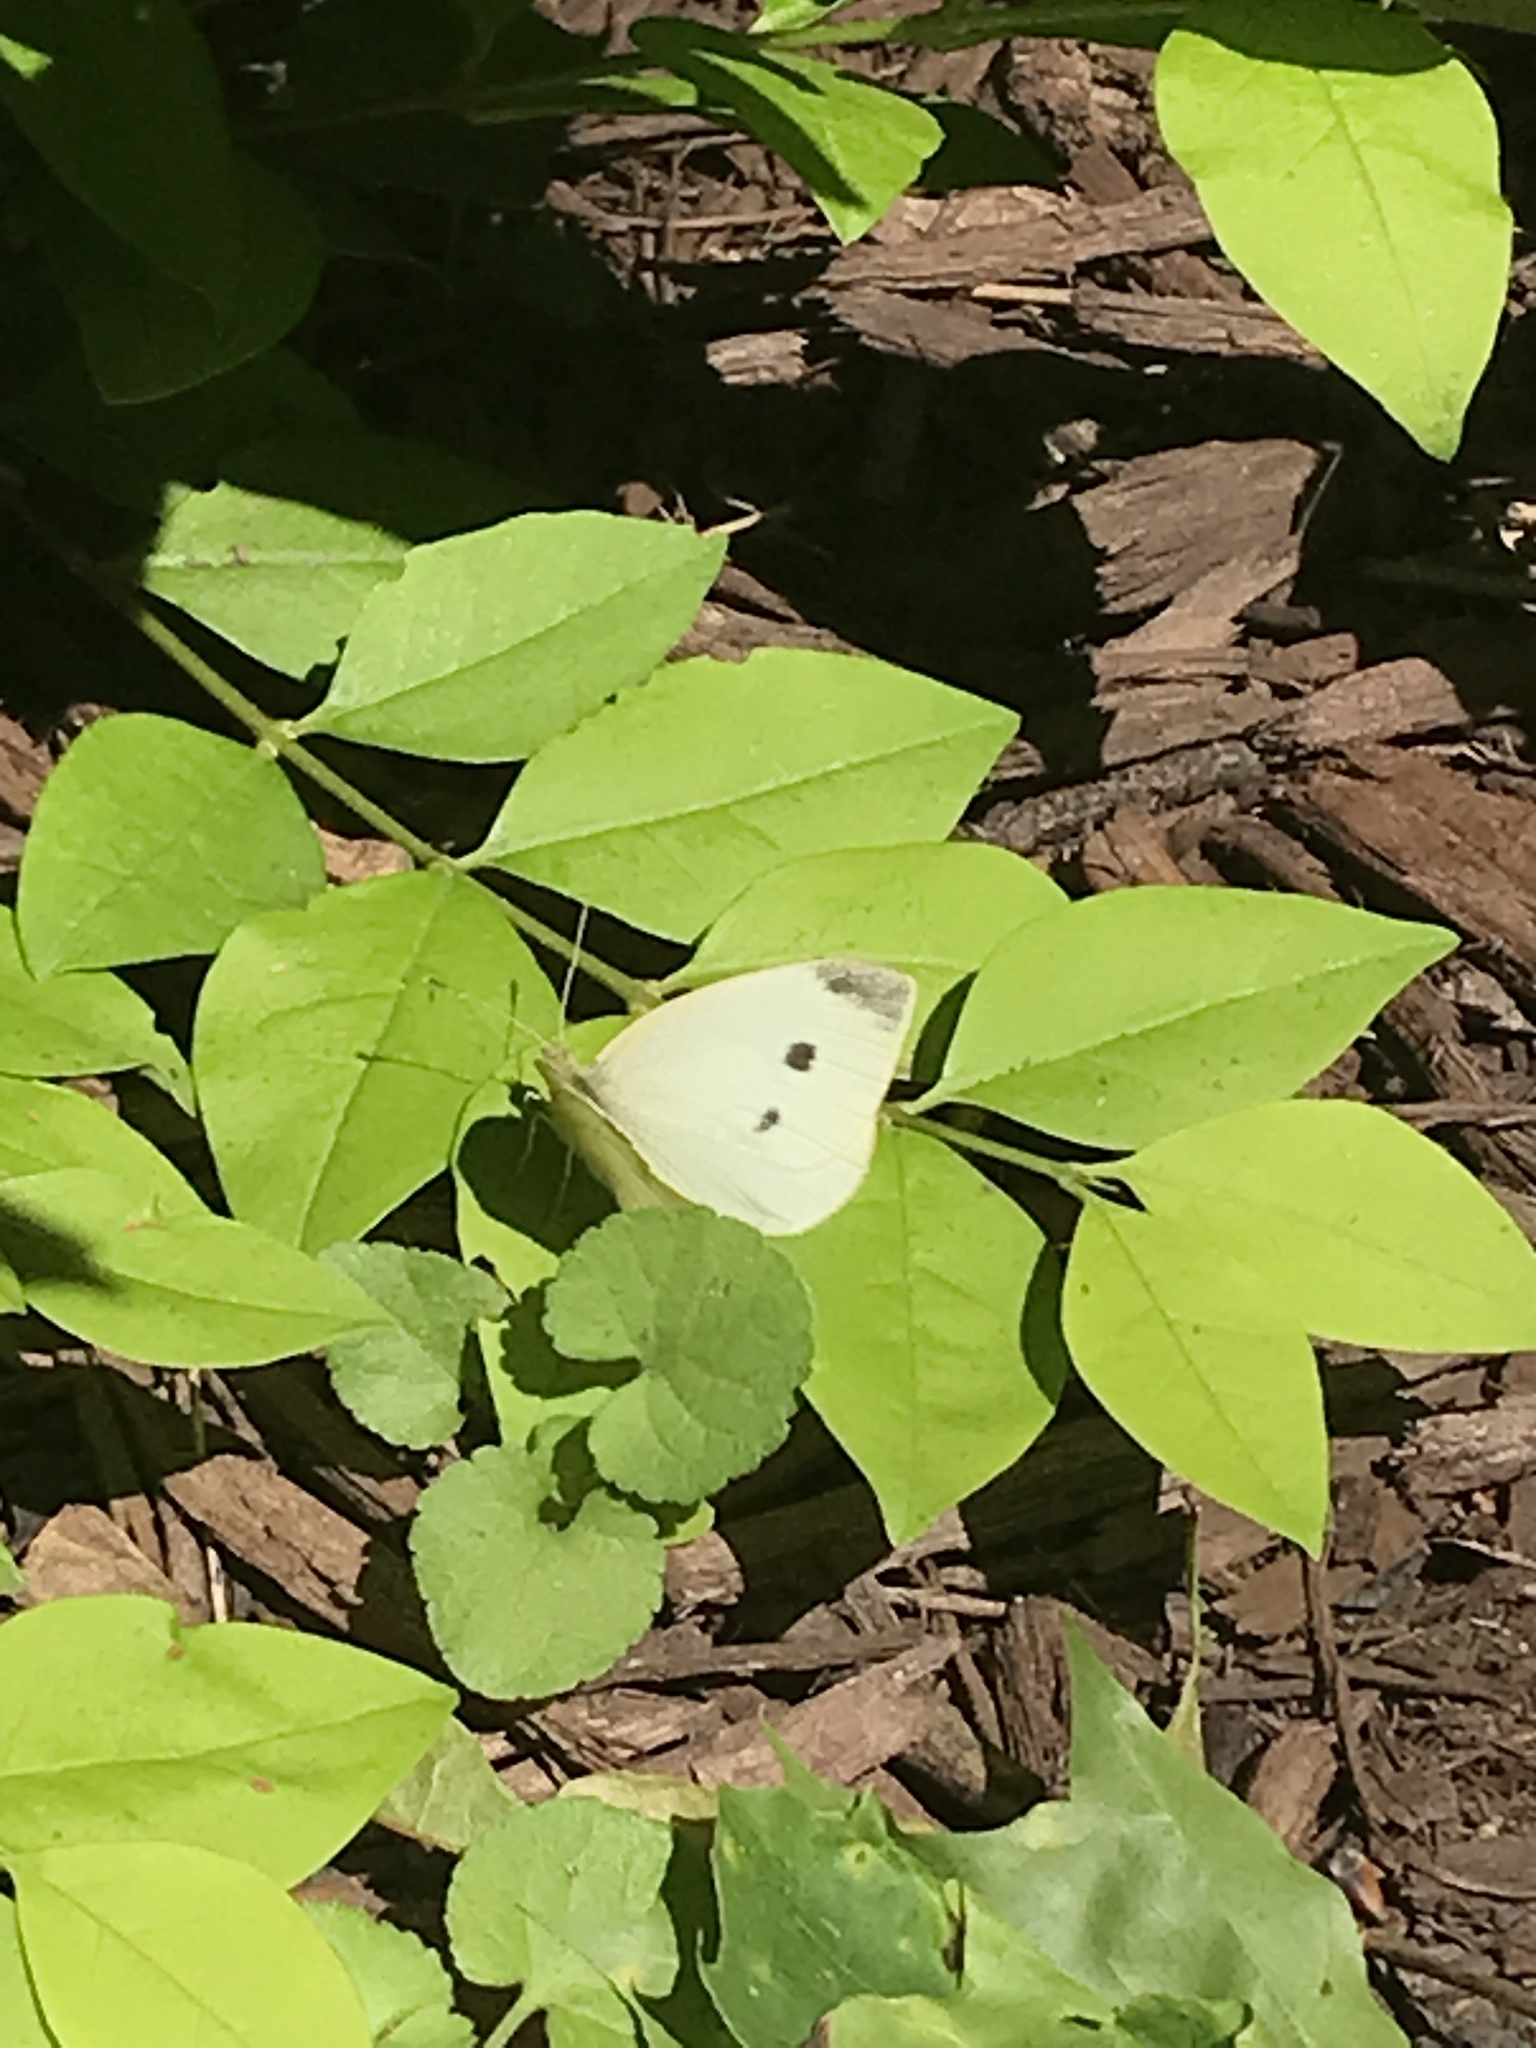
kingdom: Animalia
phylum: Arthropoda
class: Insecta
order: Lepidoptera
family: Pieridae
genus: Pieris
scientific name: Pieris rapae
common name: Small white
